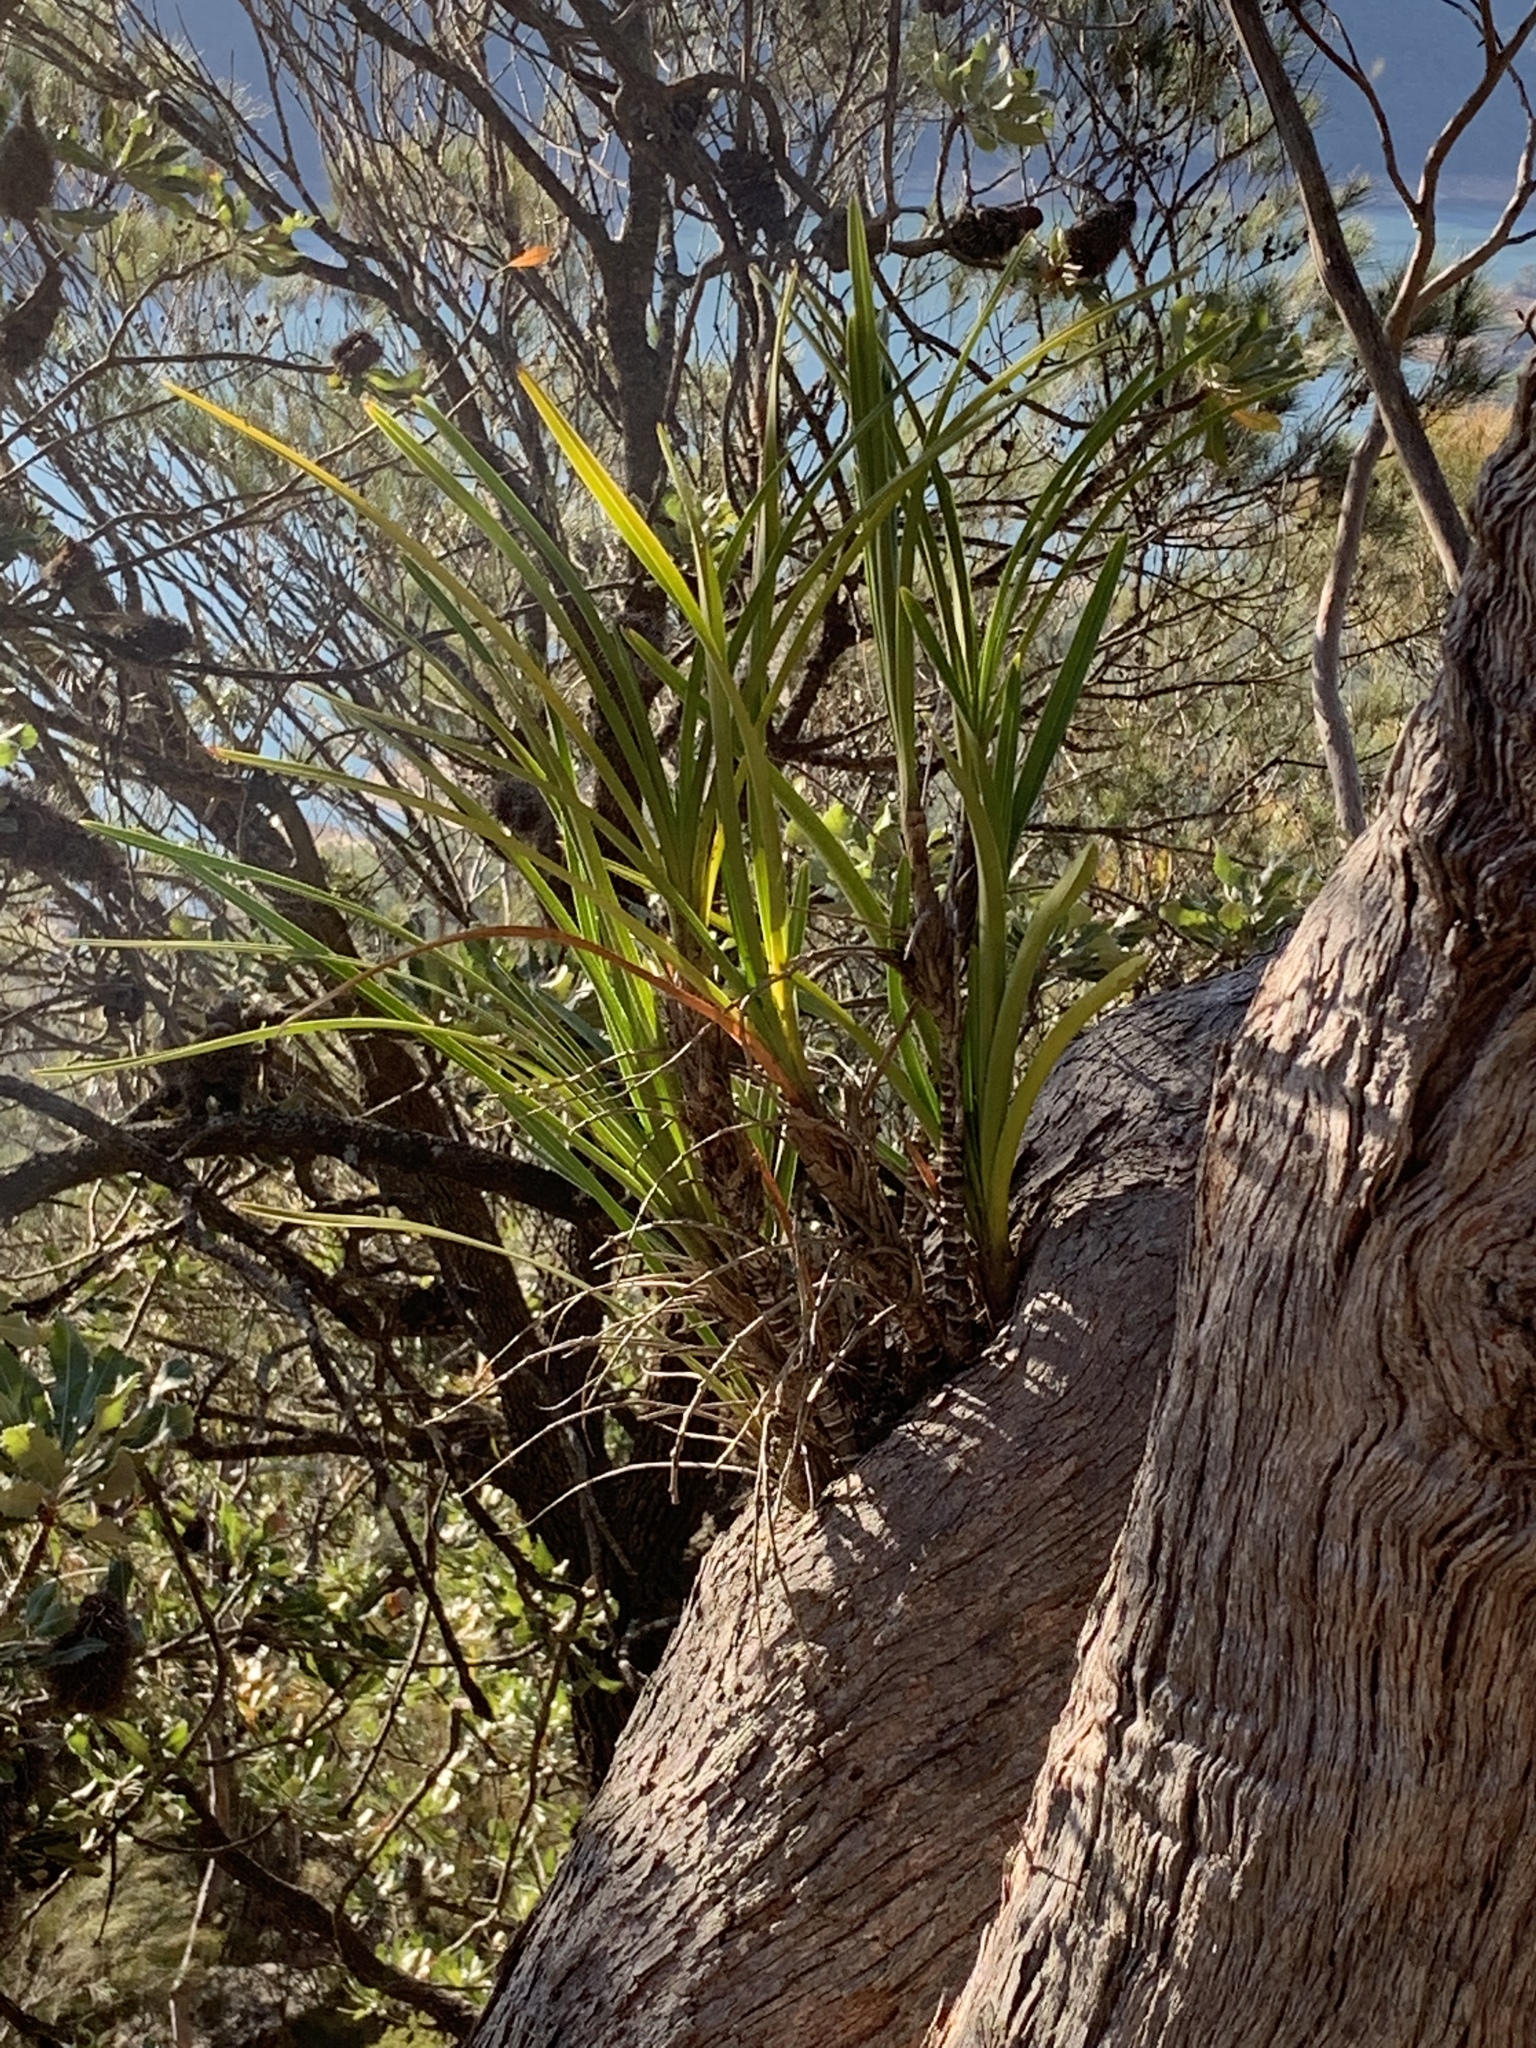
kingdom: Plantae
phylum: Tracheophyta
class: Liliopsida
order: Asparagales
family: Orchidaceae
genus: Cymbidium
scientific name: Cymbidium suave
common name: Snake orchid
